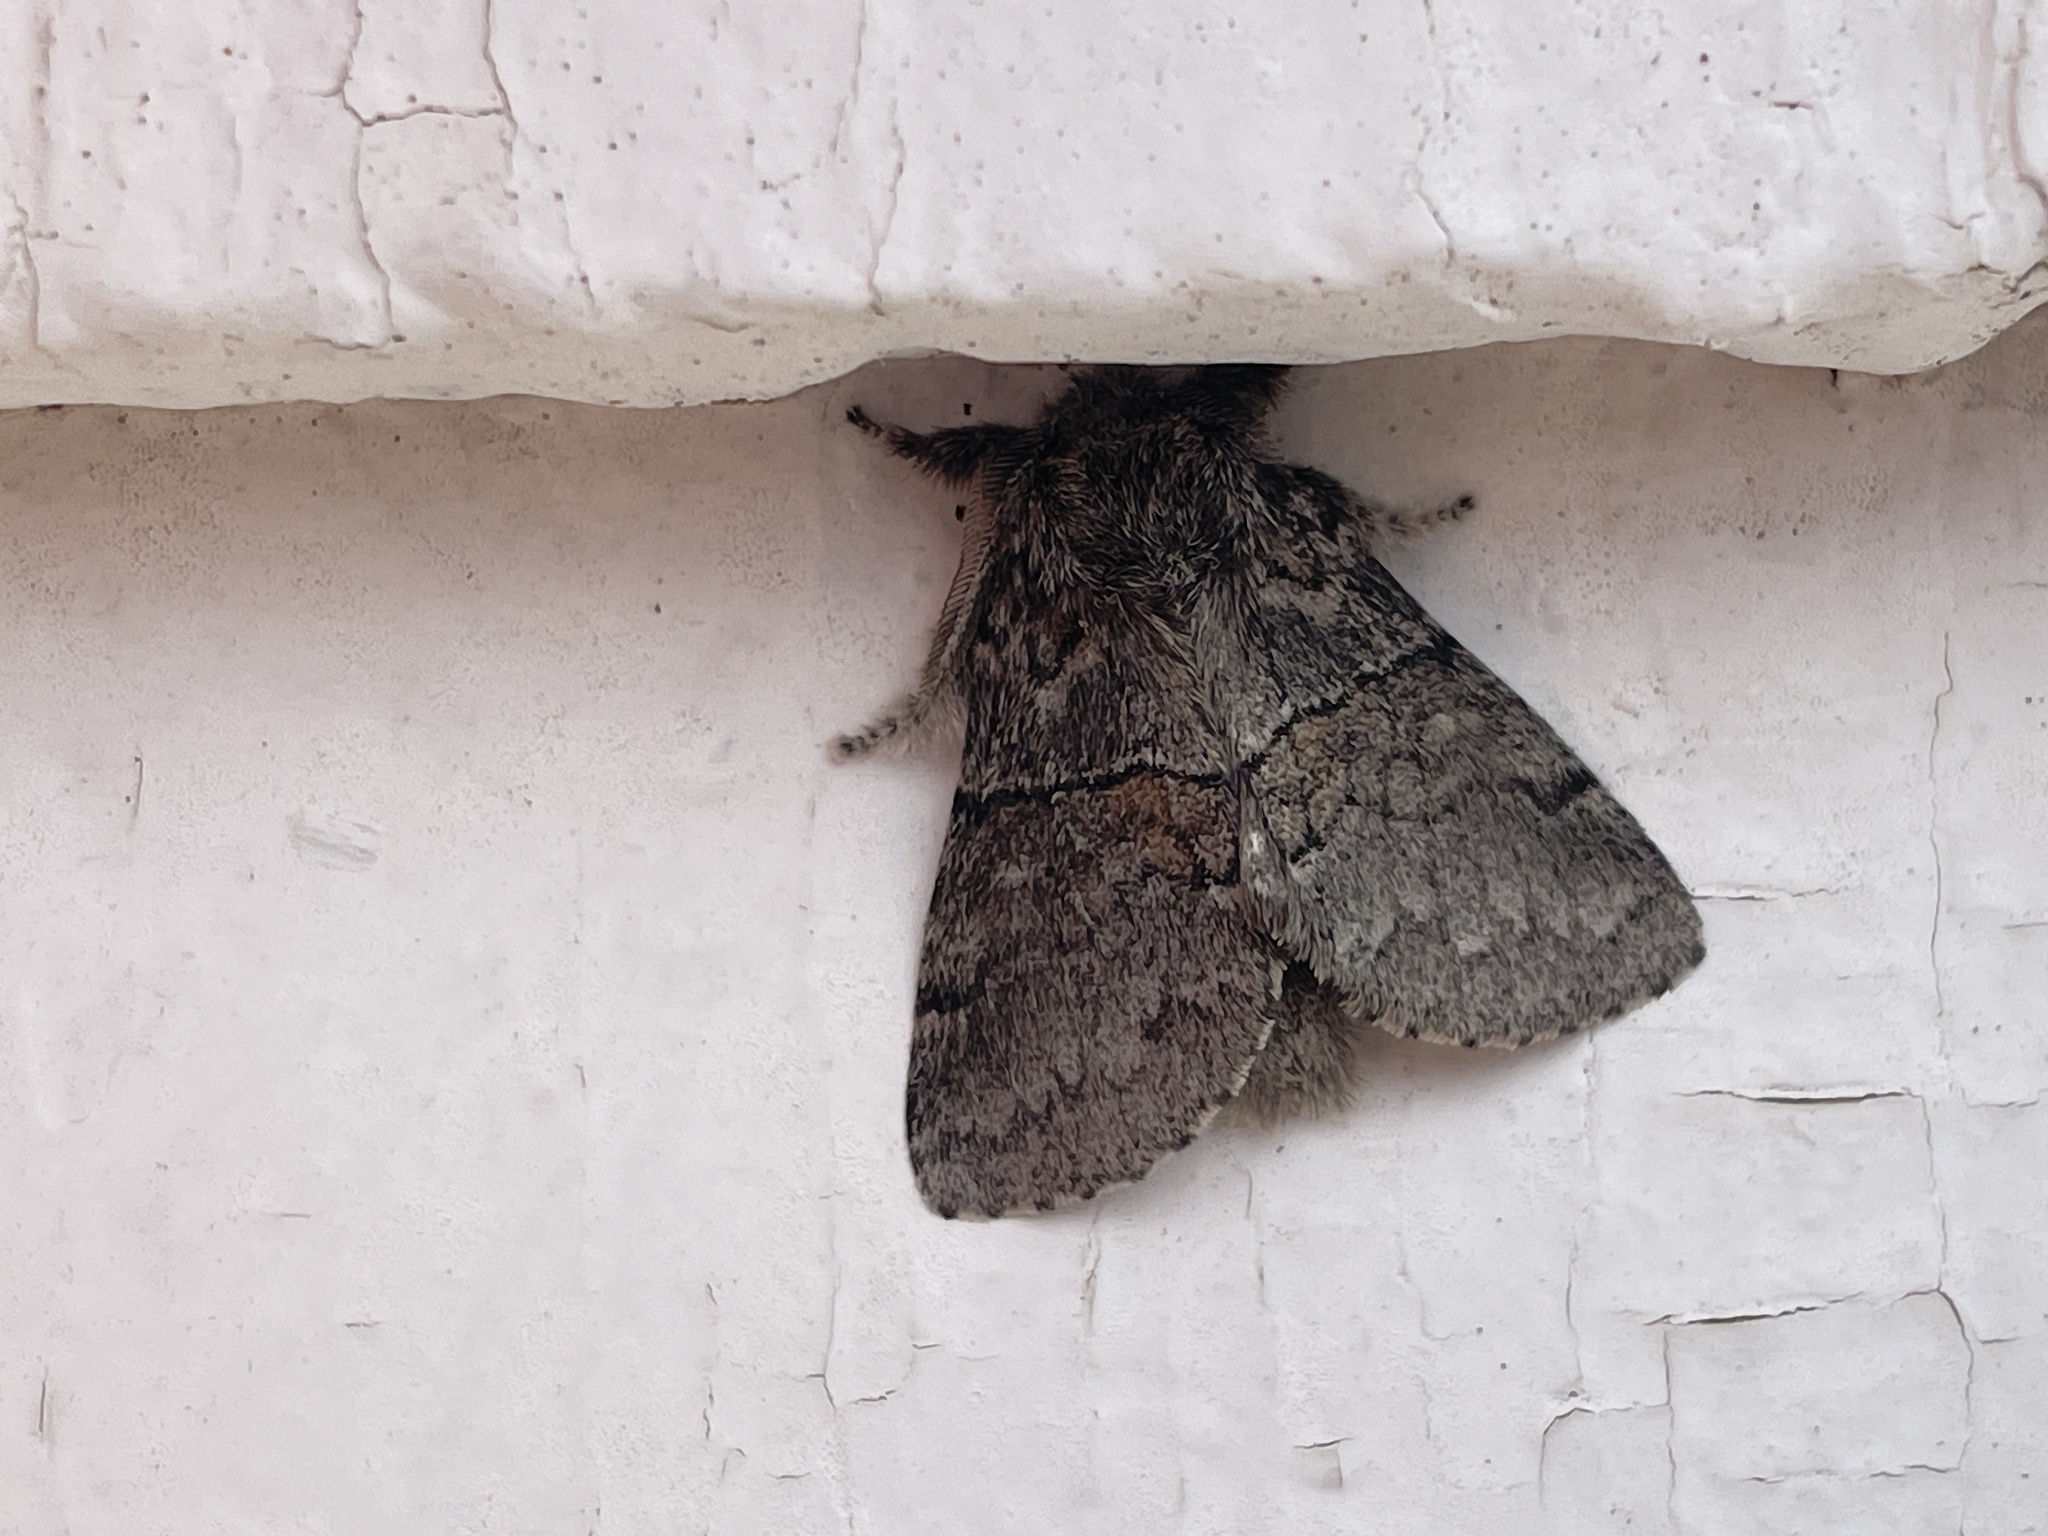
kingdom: Animalia
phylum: Arthropoda
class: Insecta
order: Lepidoptera
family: Notodontidae
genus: Gluphisia
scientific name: Gluphisia septentrionis
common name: Common gluphisia
